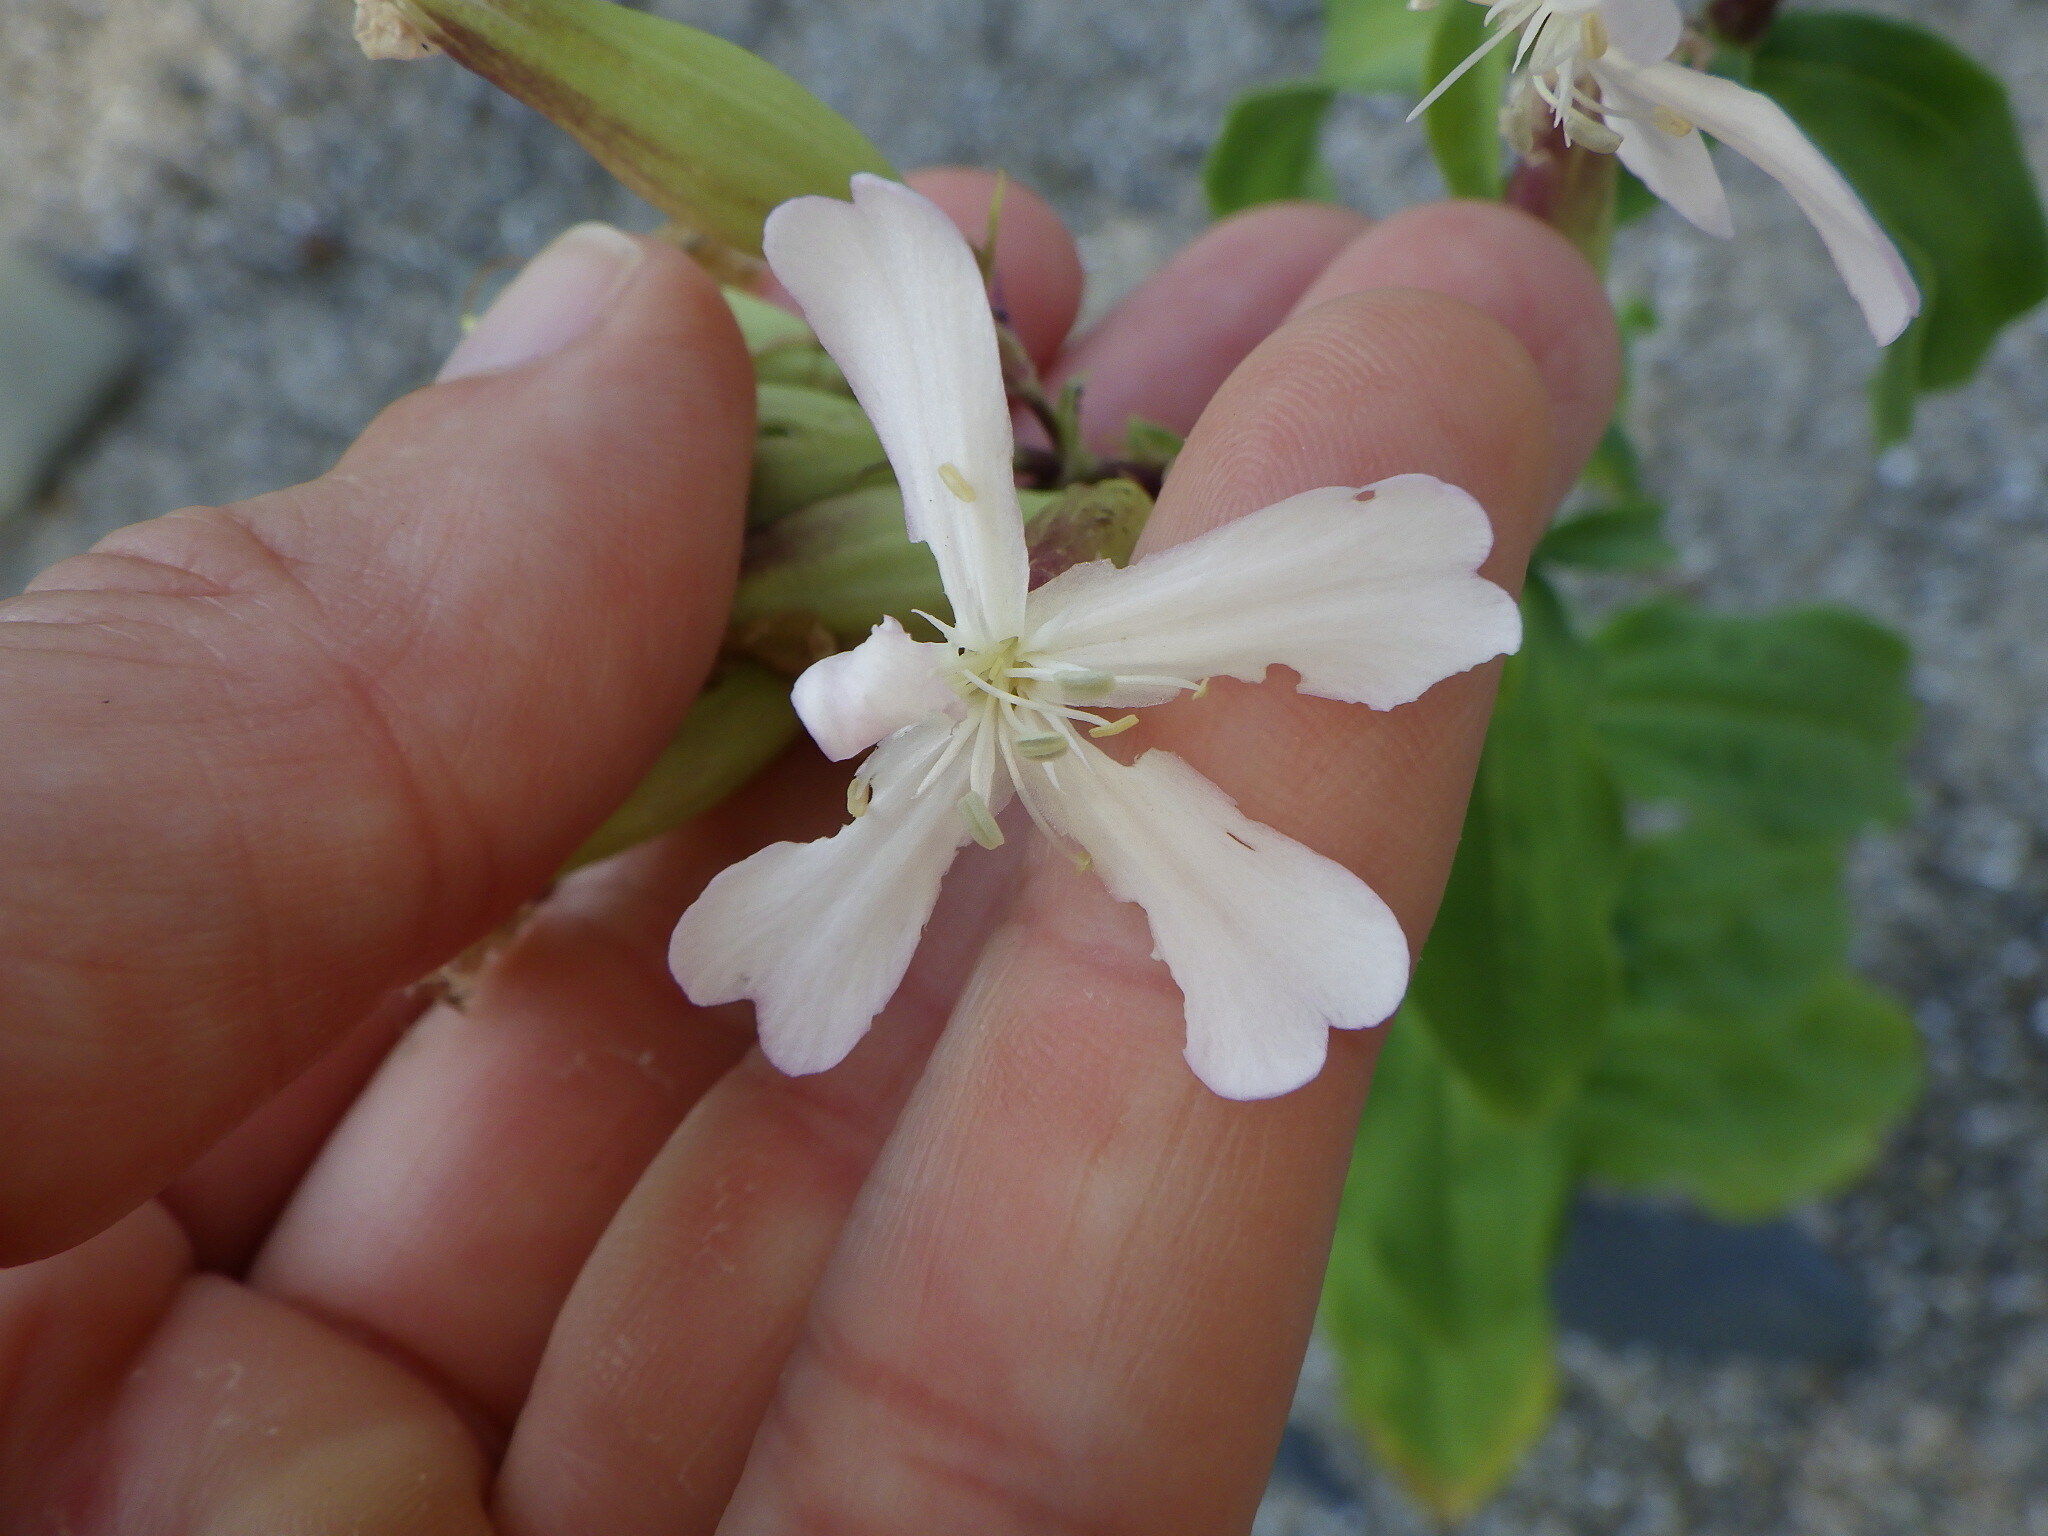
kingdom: Plantae
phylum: Tracheophyta
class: Magnoliopsida
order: Caryophyllales
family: Caryophyllaceae
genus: Saponaria
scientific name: Saponaria officinalis
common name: Soapwort
